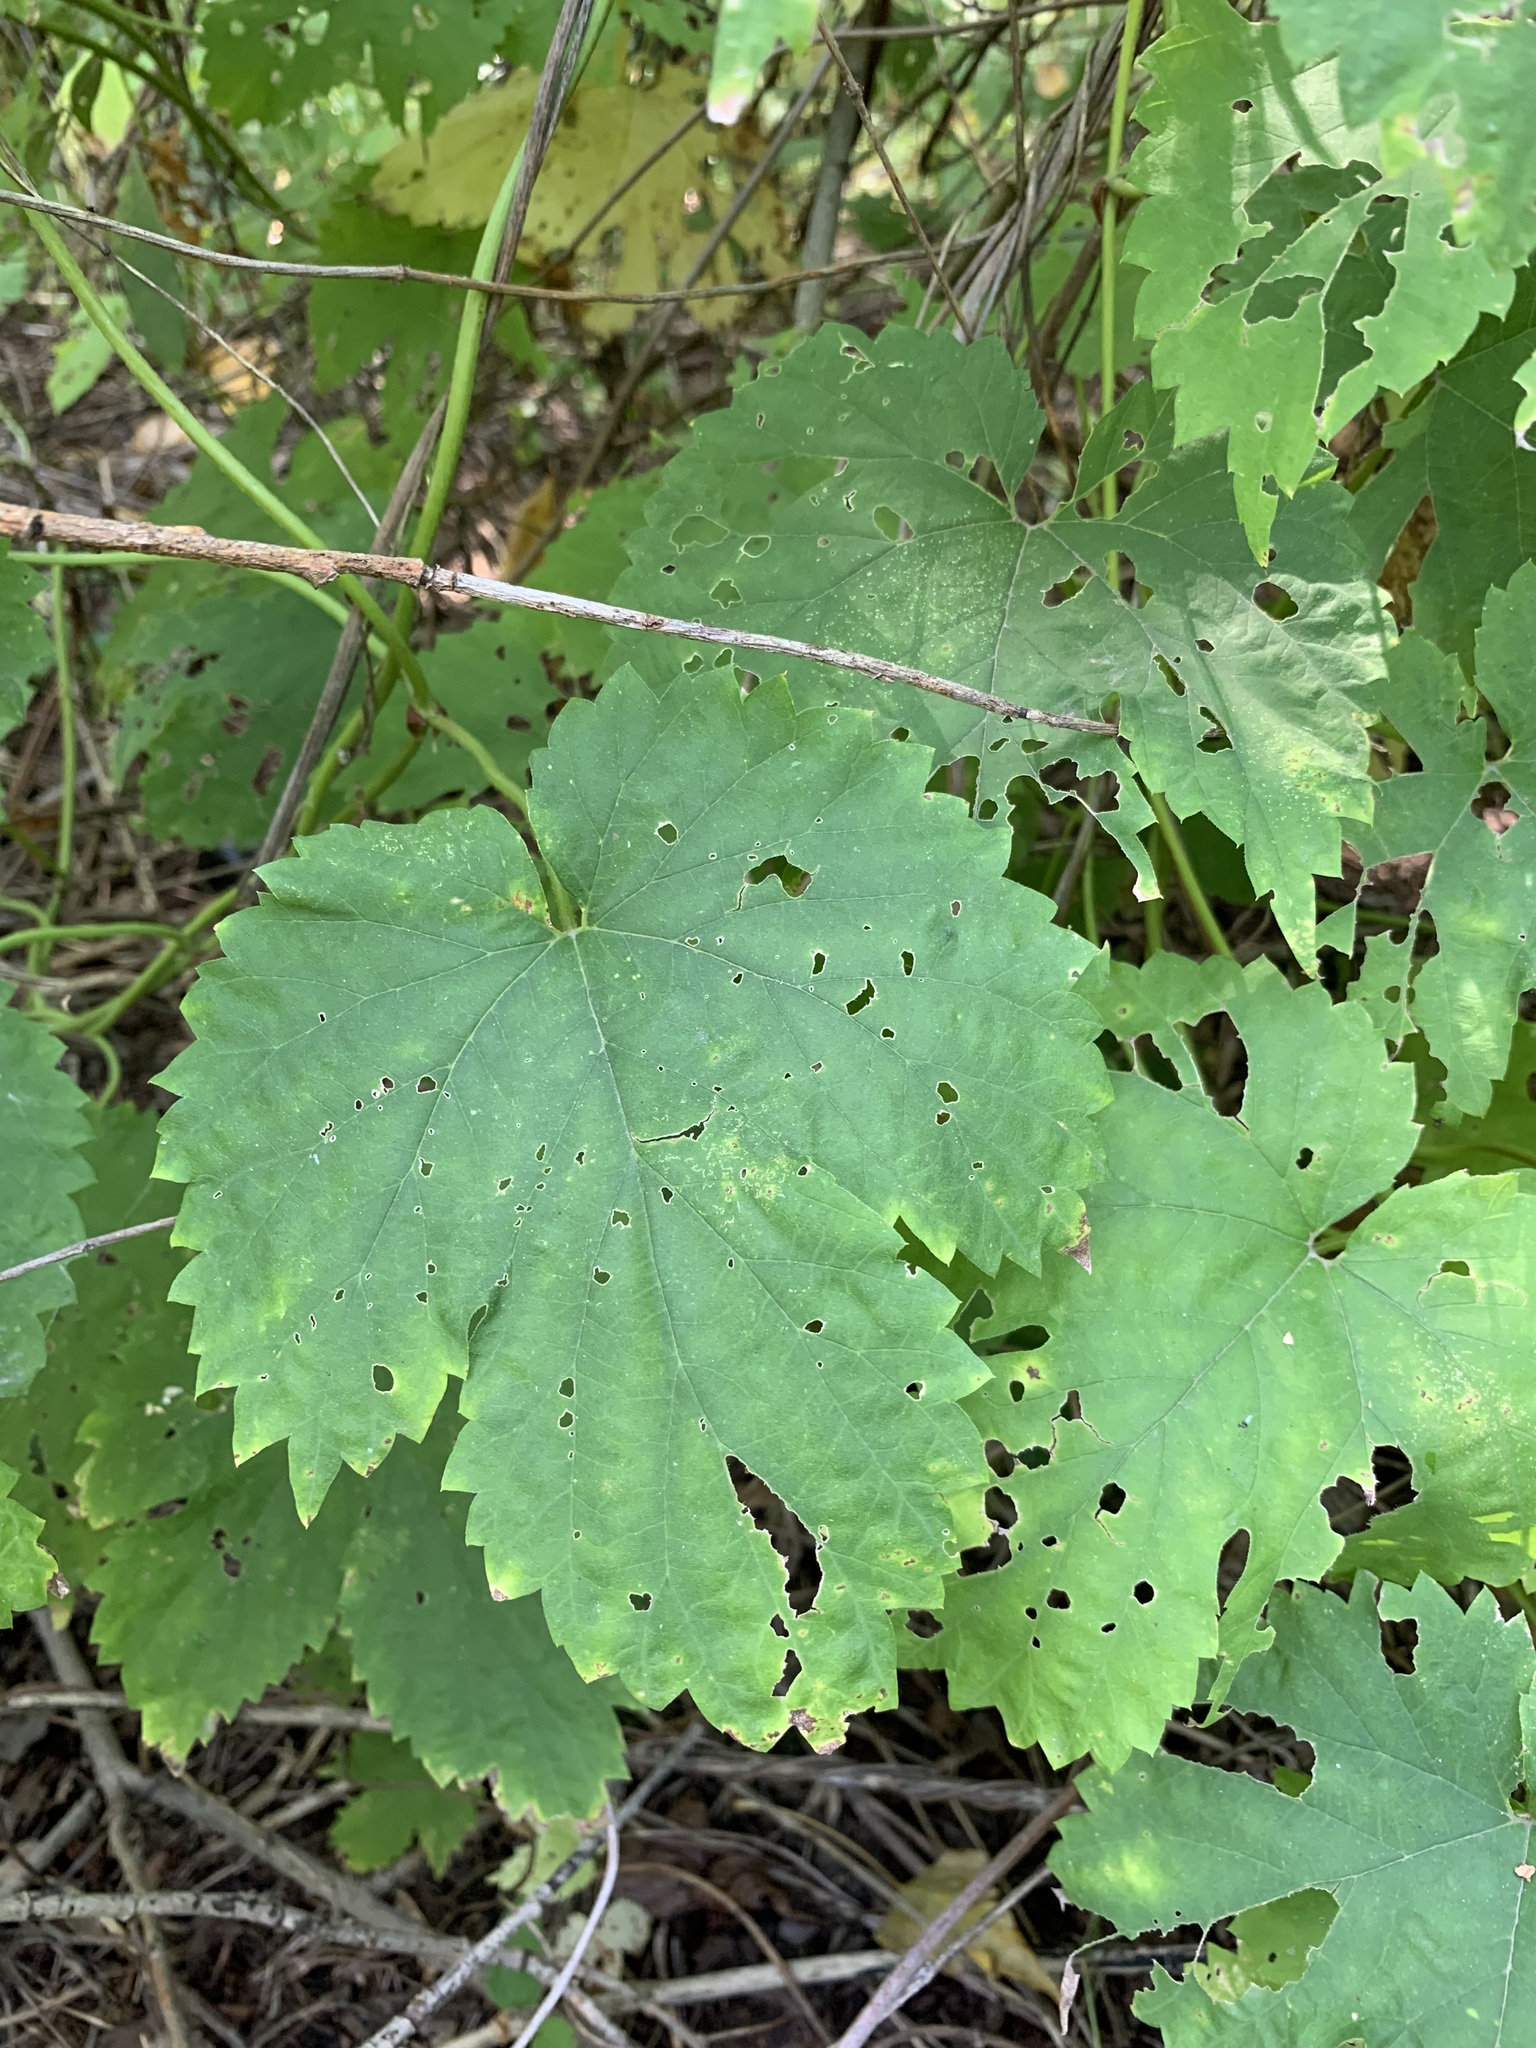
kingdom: Plantae
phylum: Tracheophyta
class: Magnoliopsida
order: Rosales
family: Cannabaceae
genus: Humulus
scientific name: Humulus lupulus
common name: Hop
